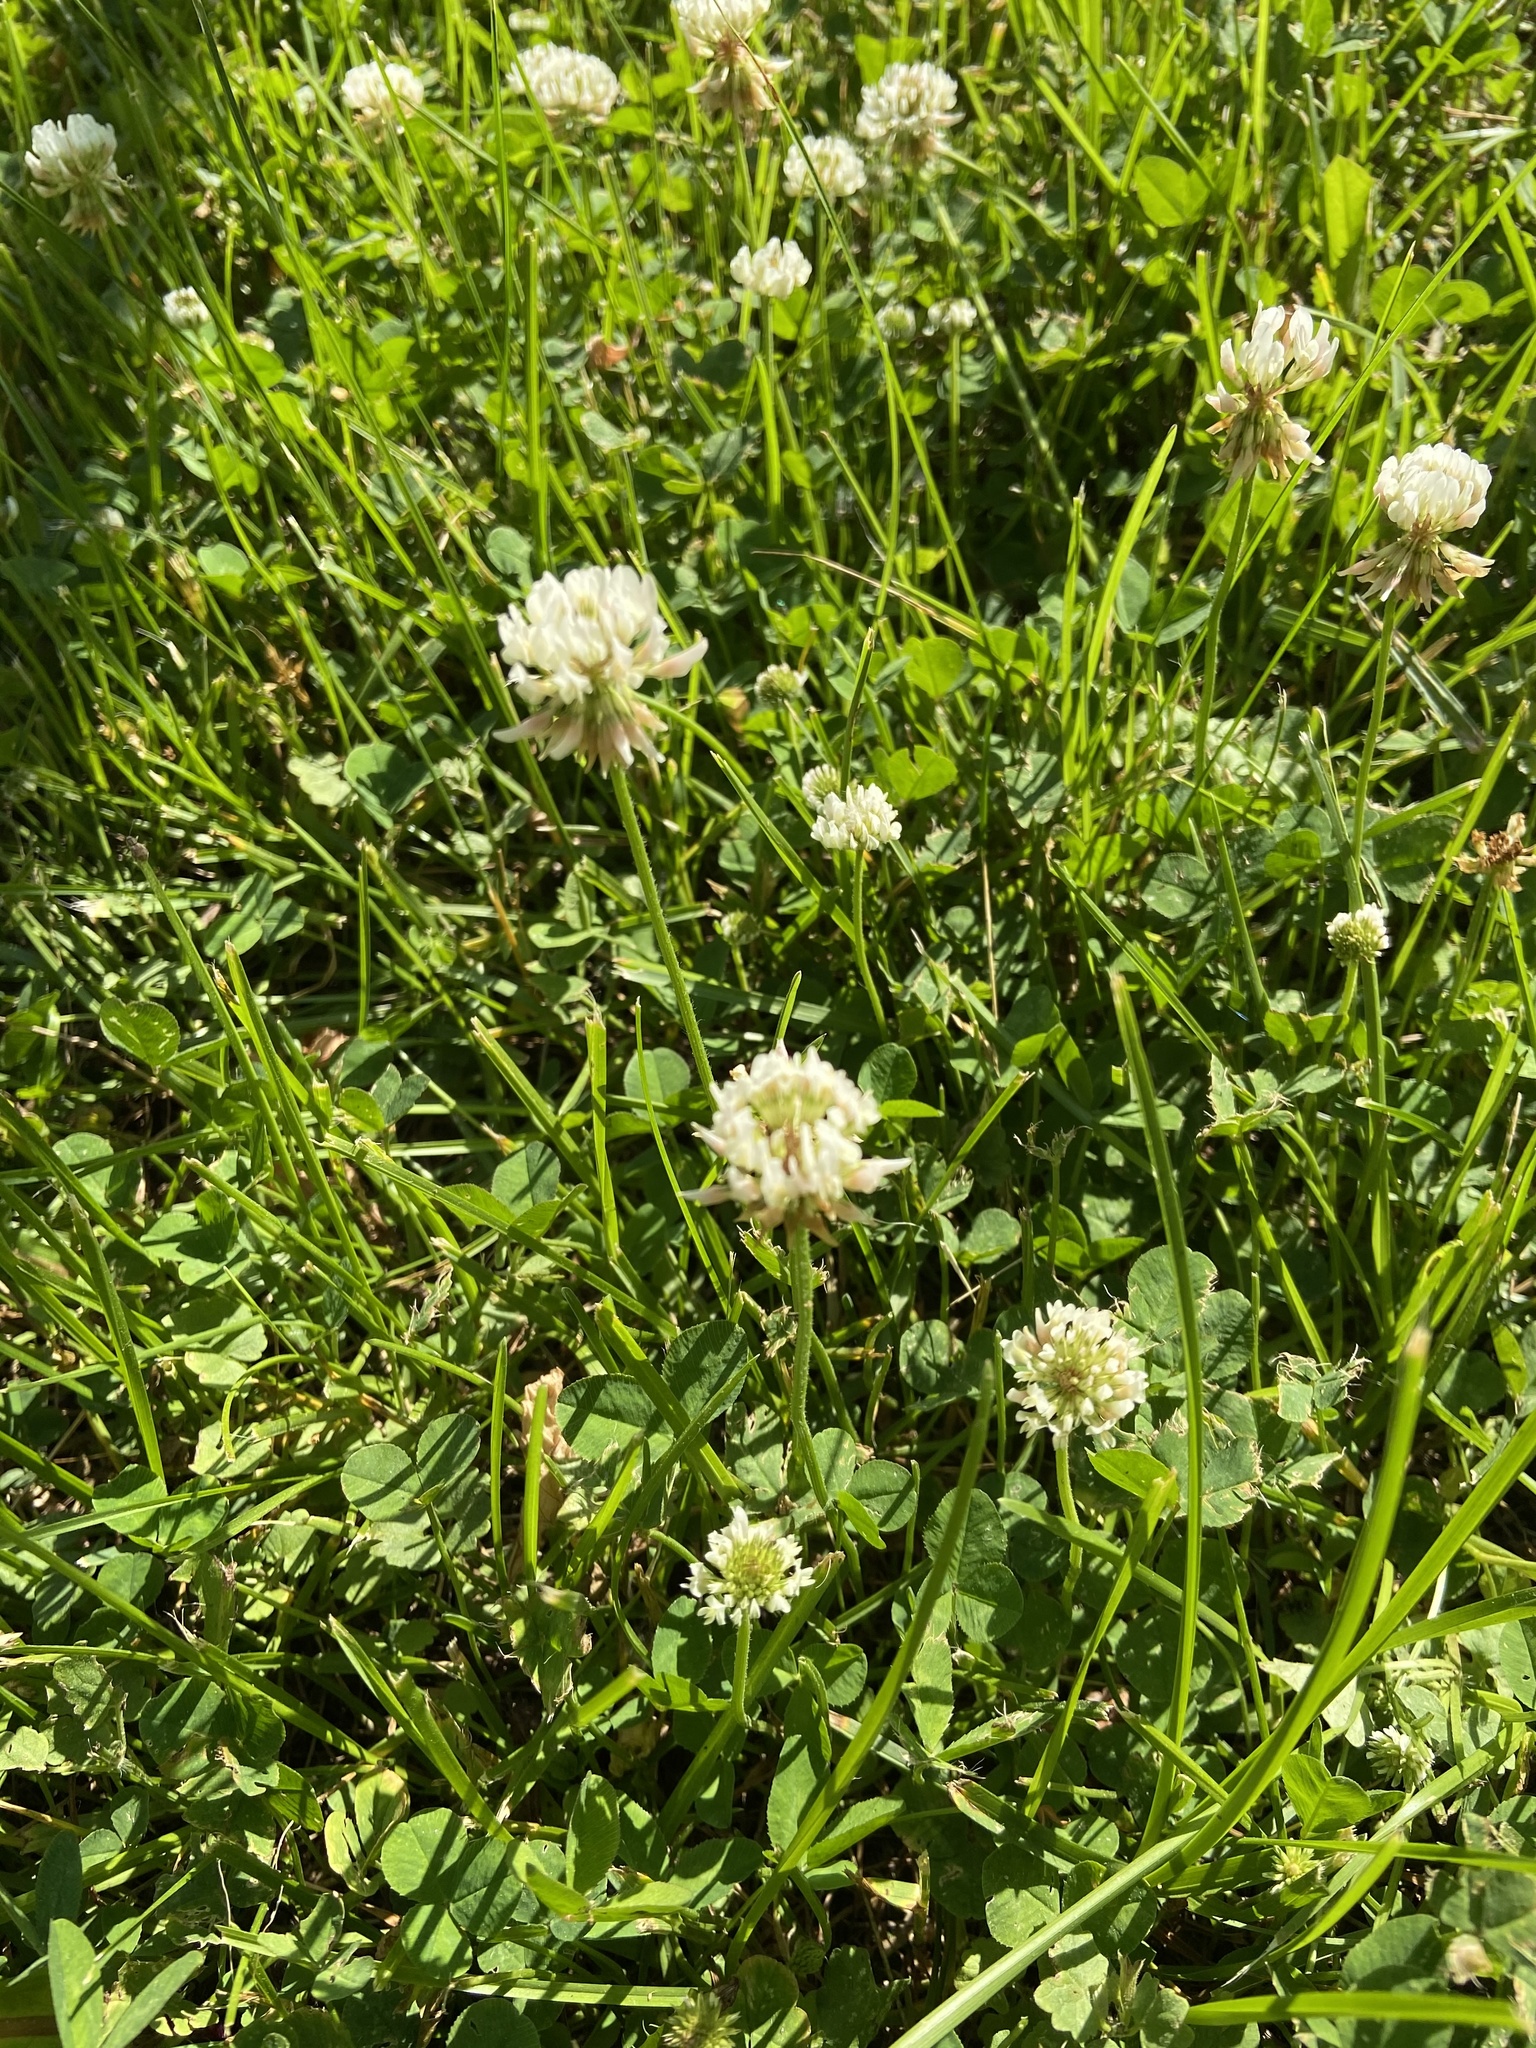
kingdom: Plantae
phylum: Tracheophyta
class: Magnoliopsida
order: Fabales
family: Fabaceae
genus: Trifolium
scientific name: Trifolium repens
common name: White clover
